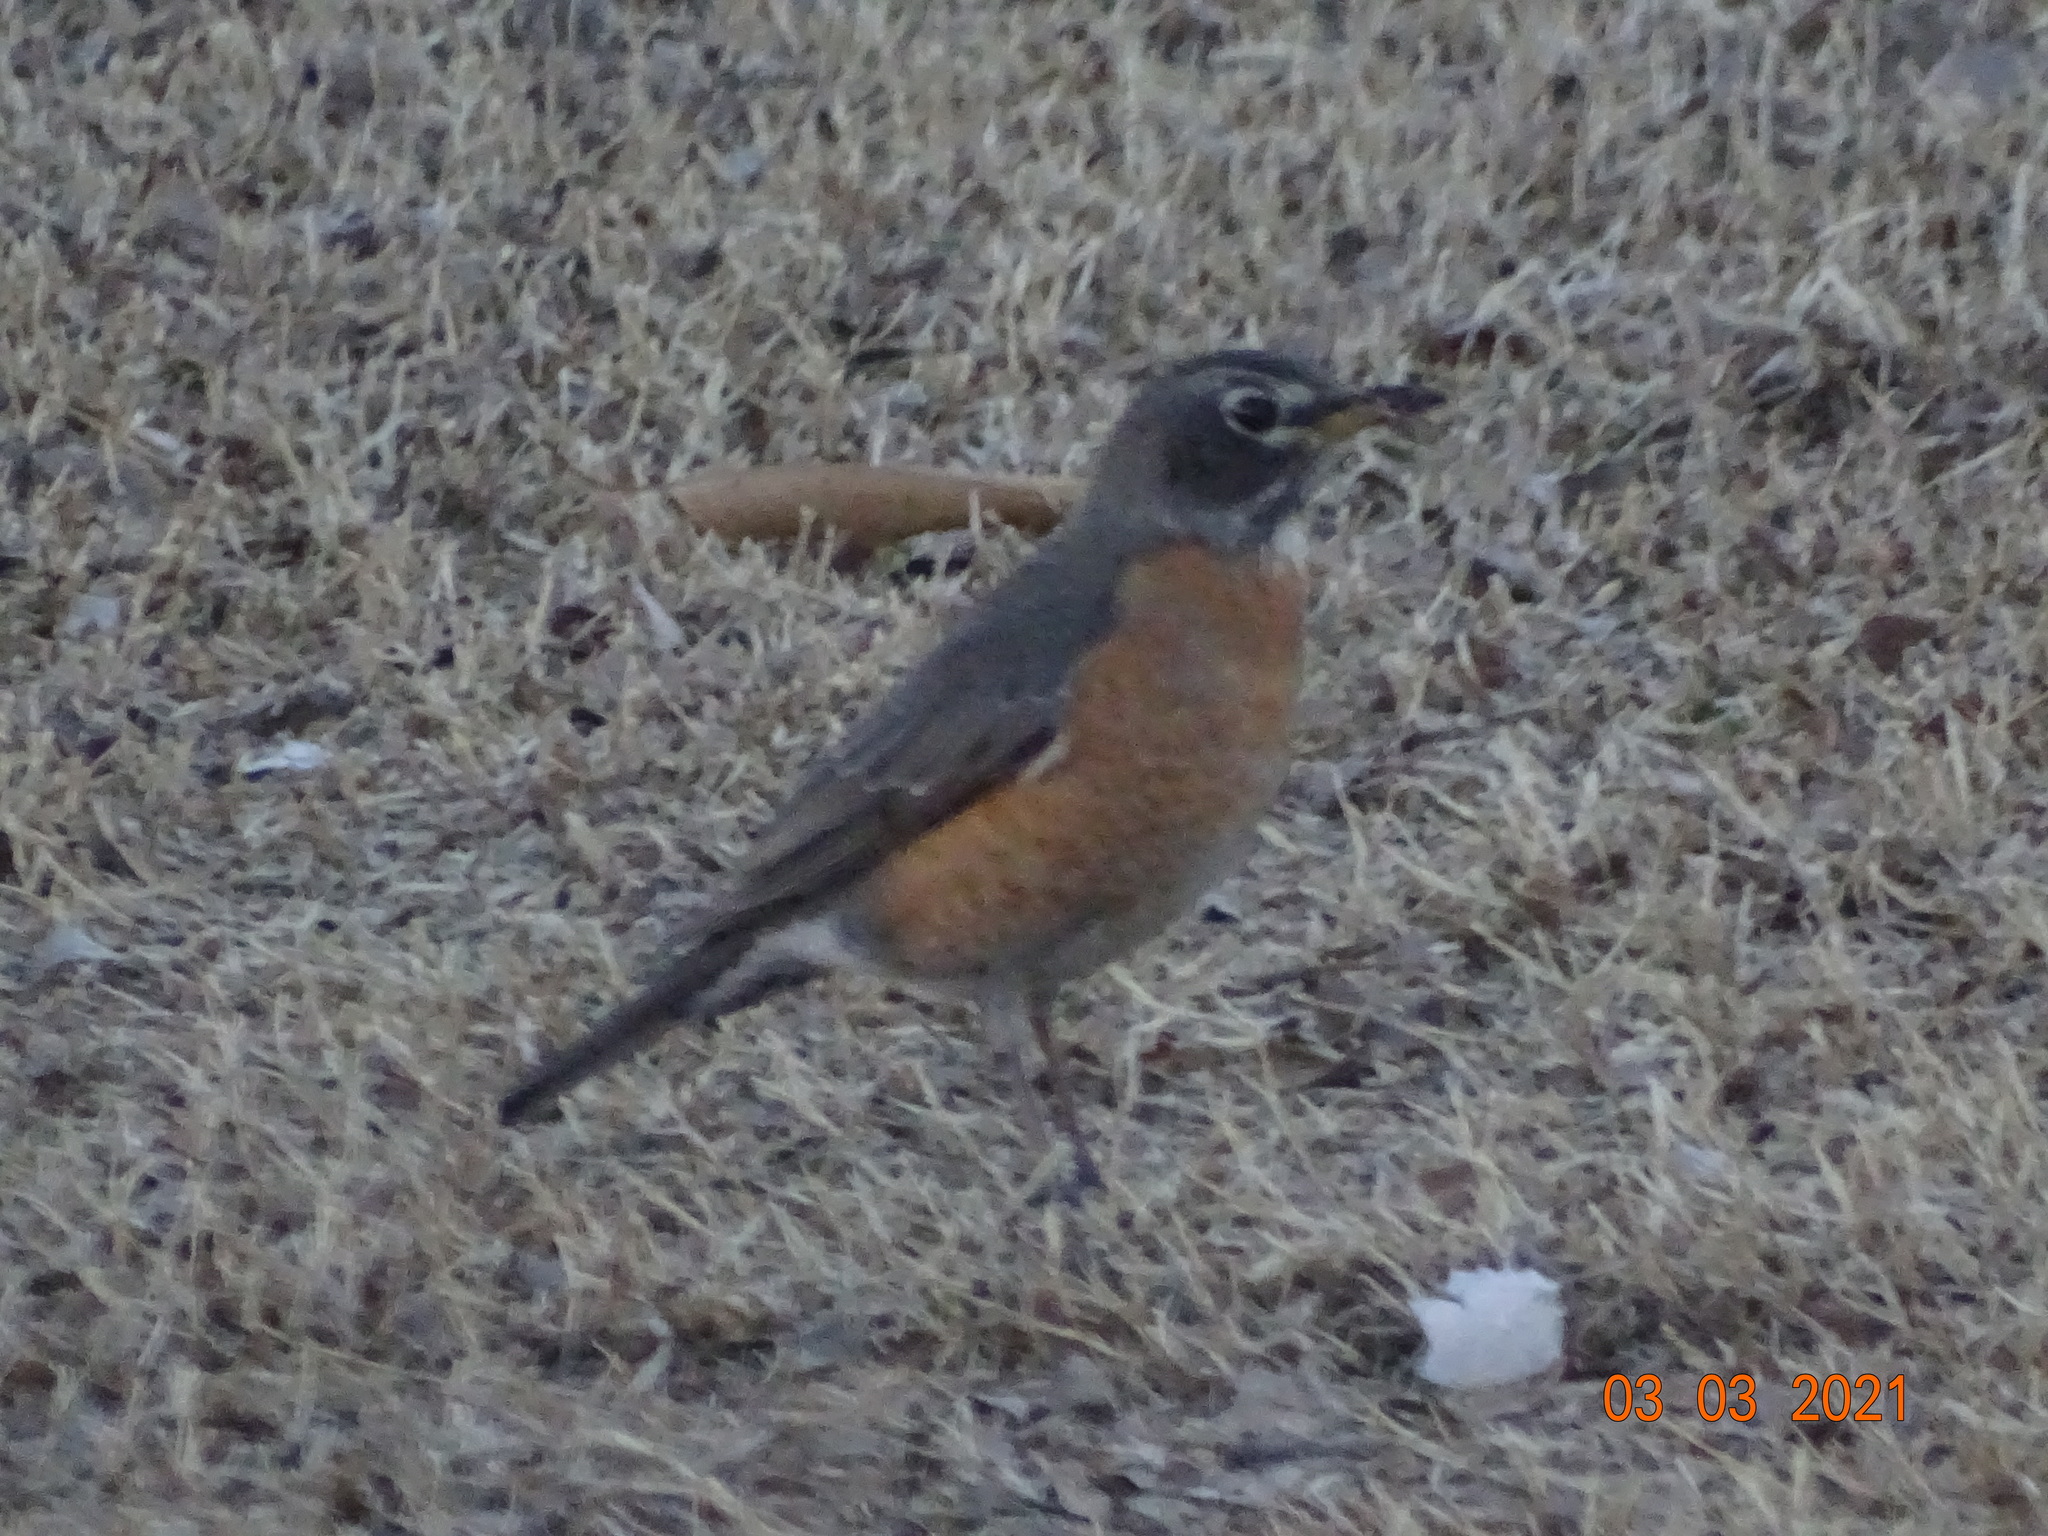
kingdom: Animalia
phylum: Chordata
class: Aves
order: Passeriformes
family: Turdidae
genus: Turdus
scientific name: Turdus migratorius
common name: American robin
